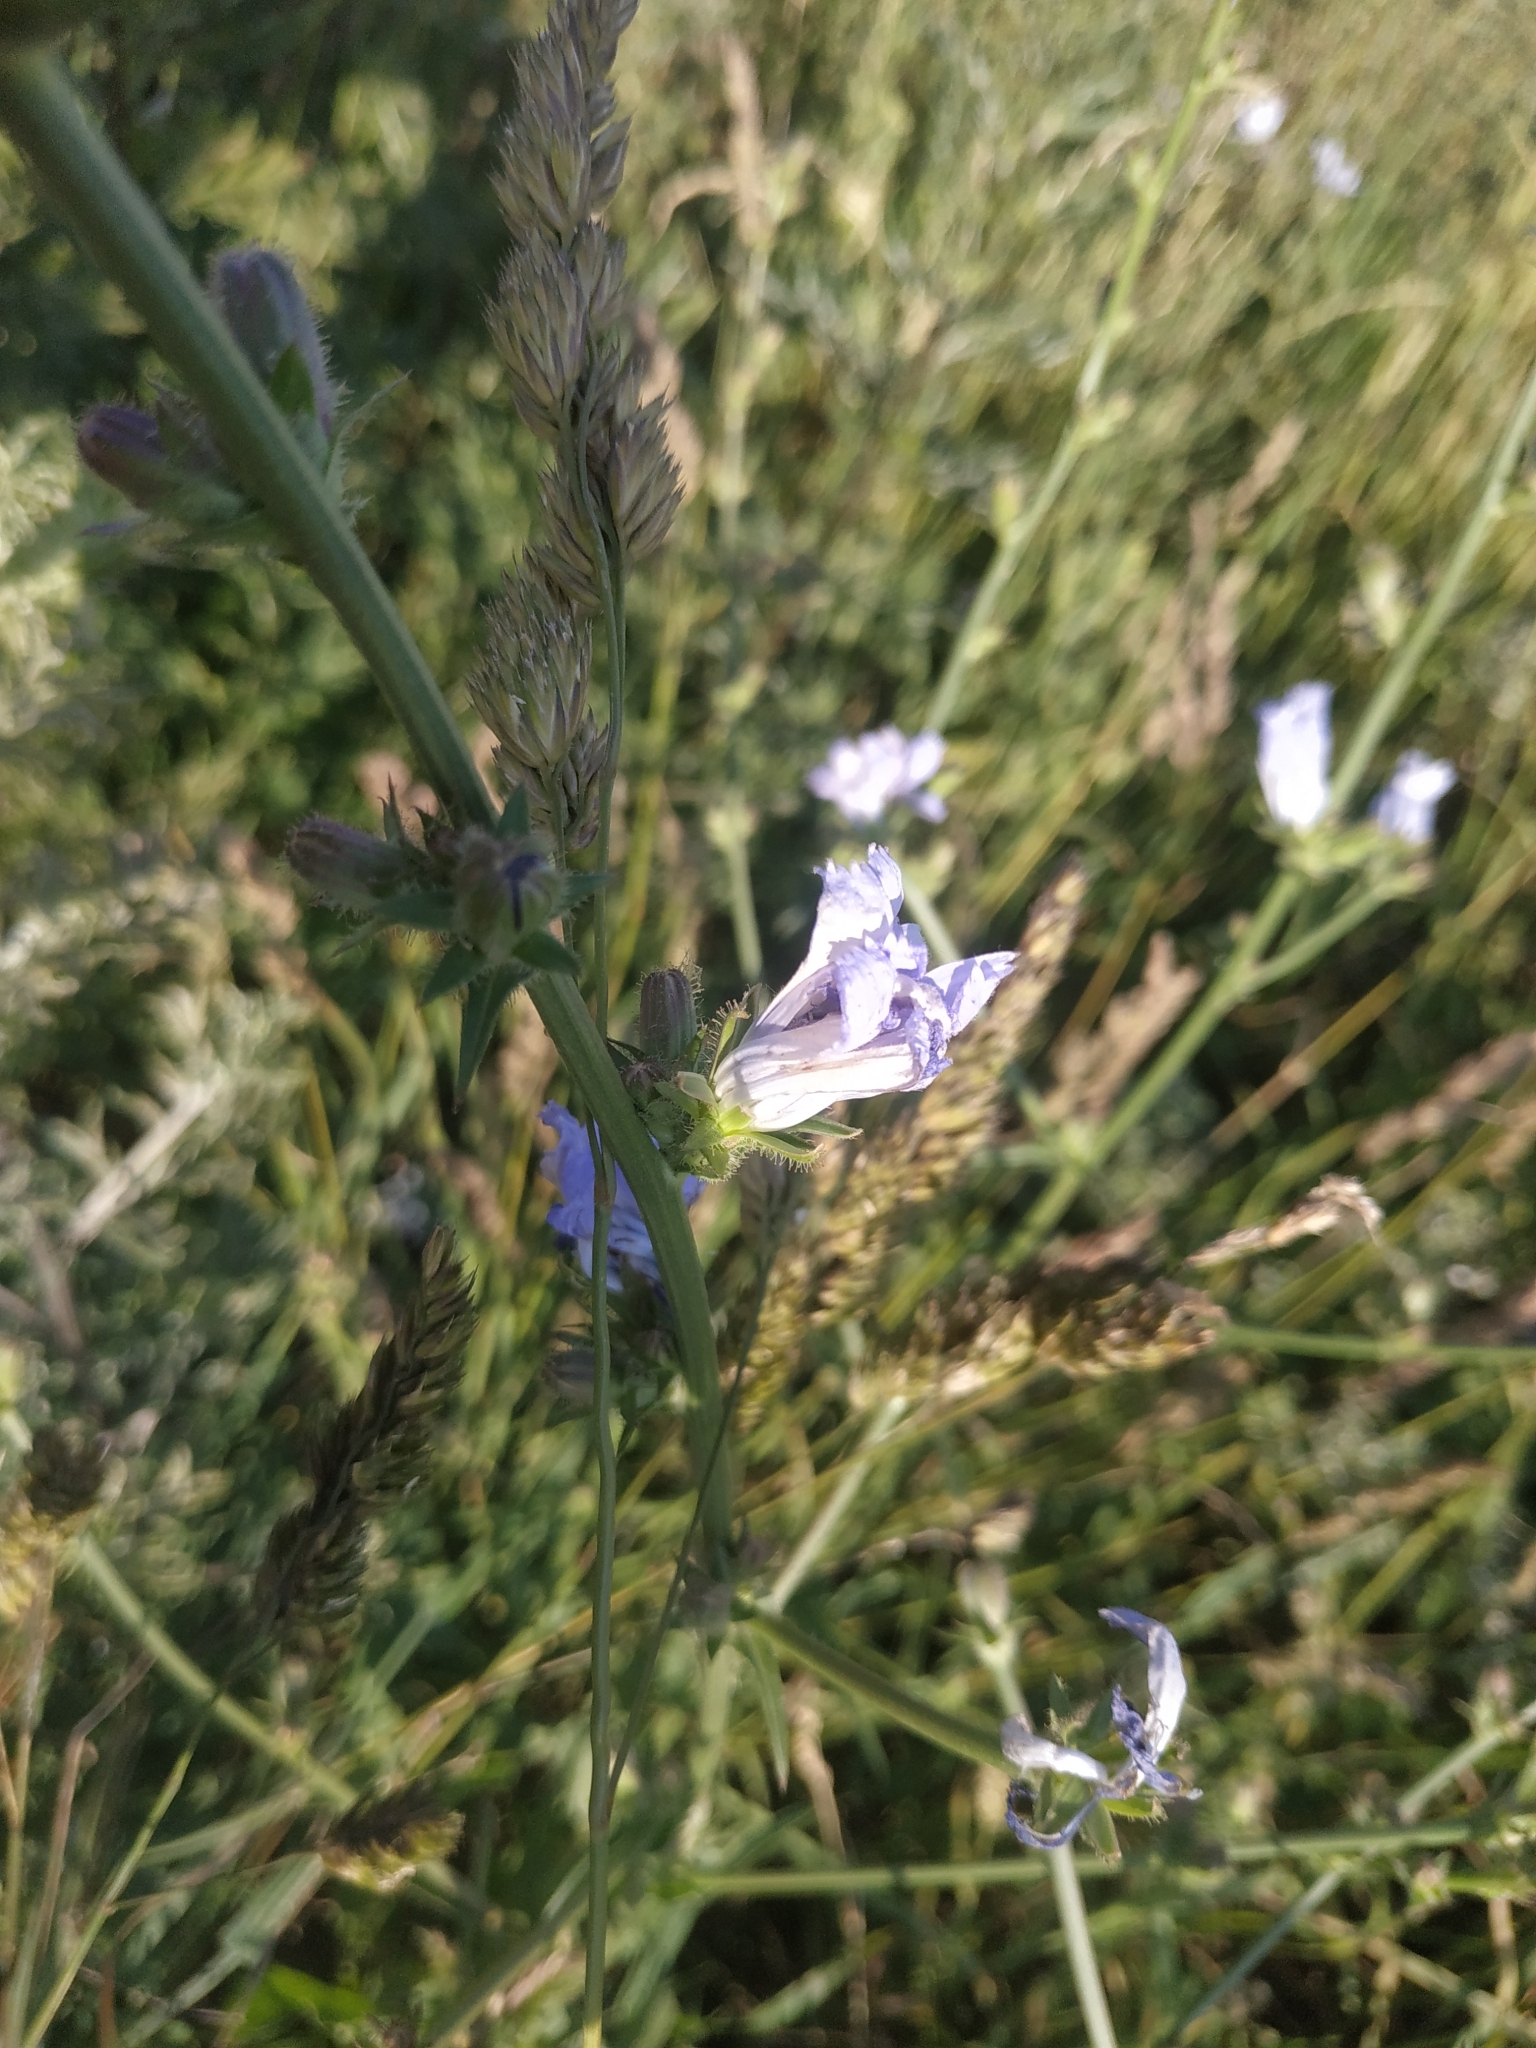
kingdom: Plantae
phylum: Tracheophyta
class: Magnoliopsida
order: Asterales
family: Asteraceae
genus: Cichorium
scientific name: Cichorium intybus
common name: Chicory
